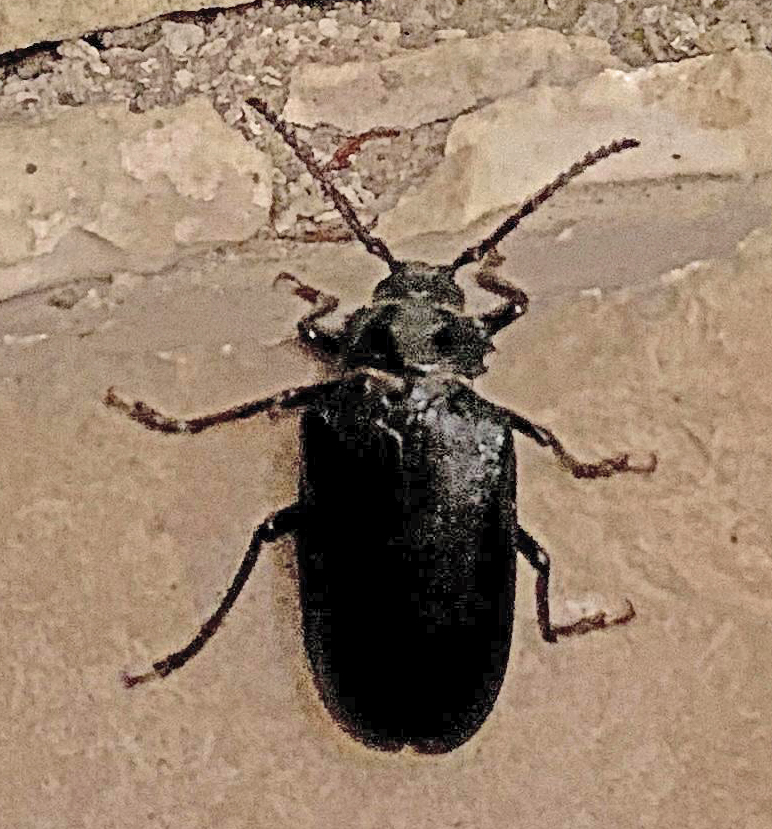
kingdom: Animalia
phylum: Arthropoda
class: Insecta
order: Coleoptera
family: Cerambycidae
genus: Prionus
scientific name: Prionus coriarius
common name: Tanner beetle
